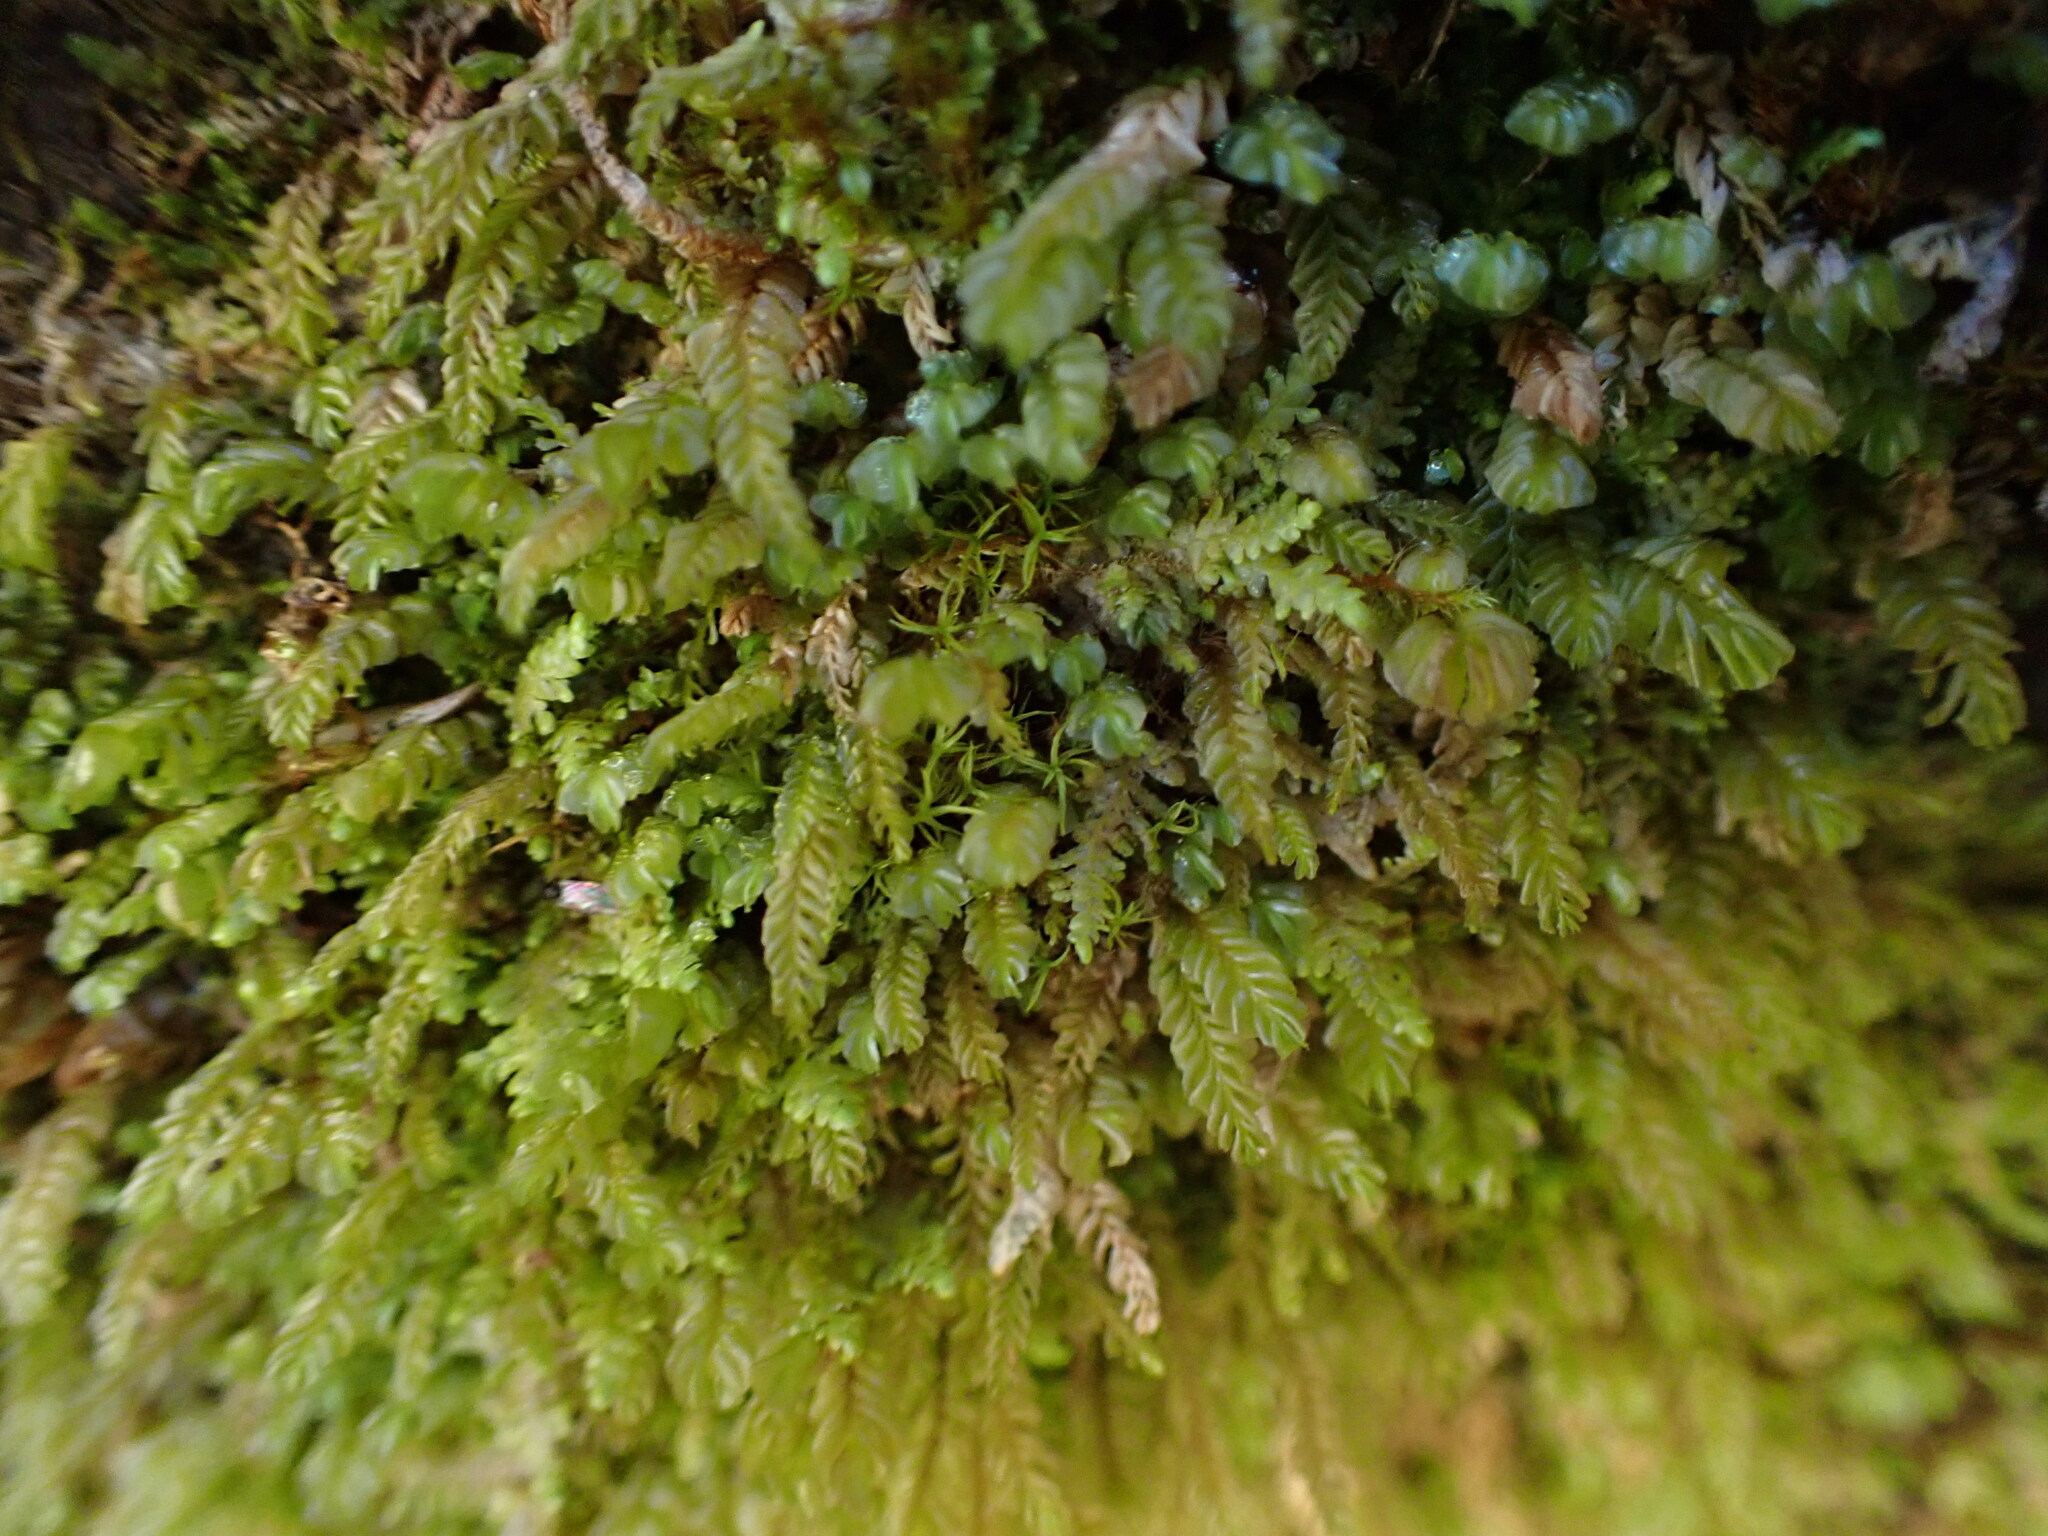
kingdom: Plantae
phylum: Marchantiophyta
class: Jungermanniopsida
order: Jungermanniales
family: Plagiochilaceae
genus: Plagiochila
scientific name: Plagiochila porelloides
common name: Lesser featherwort
